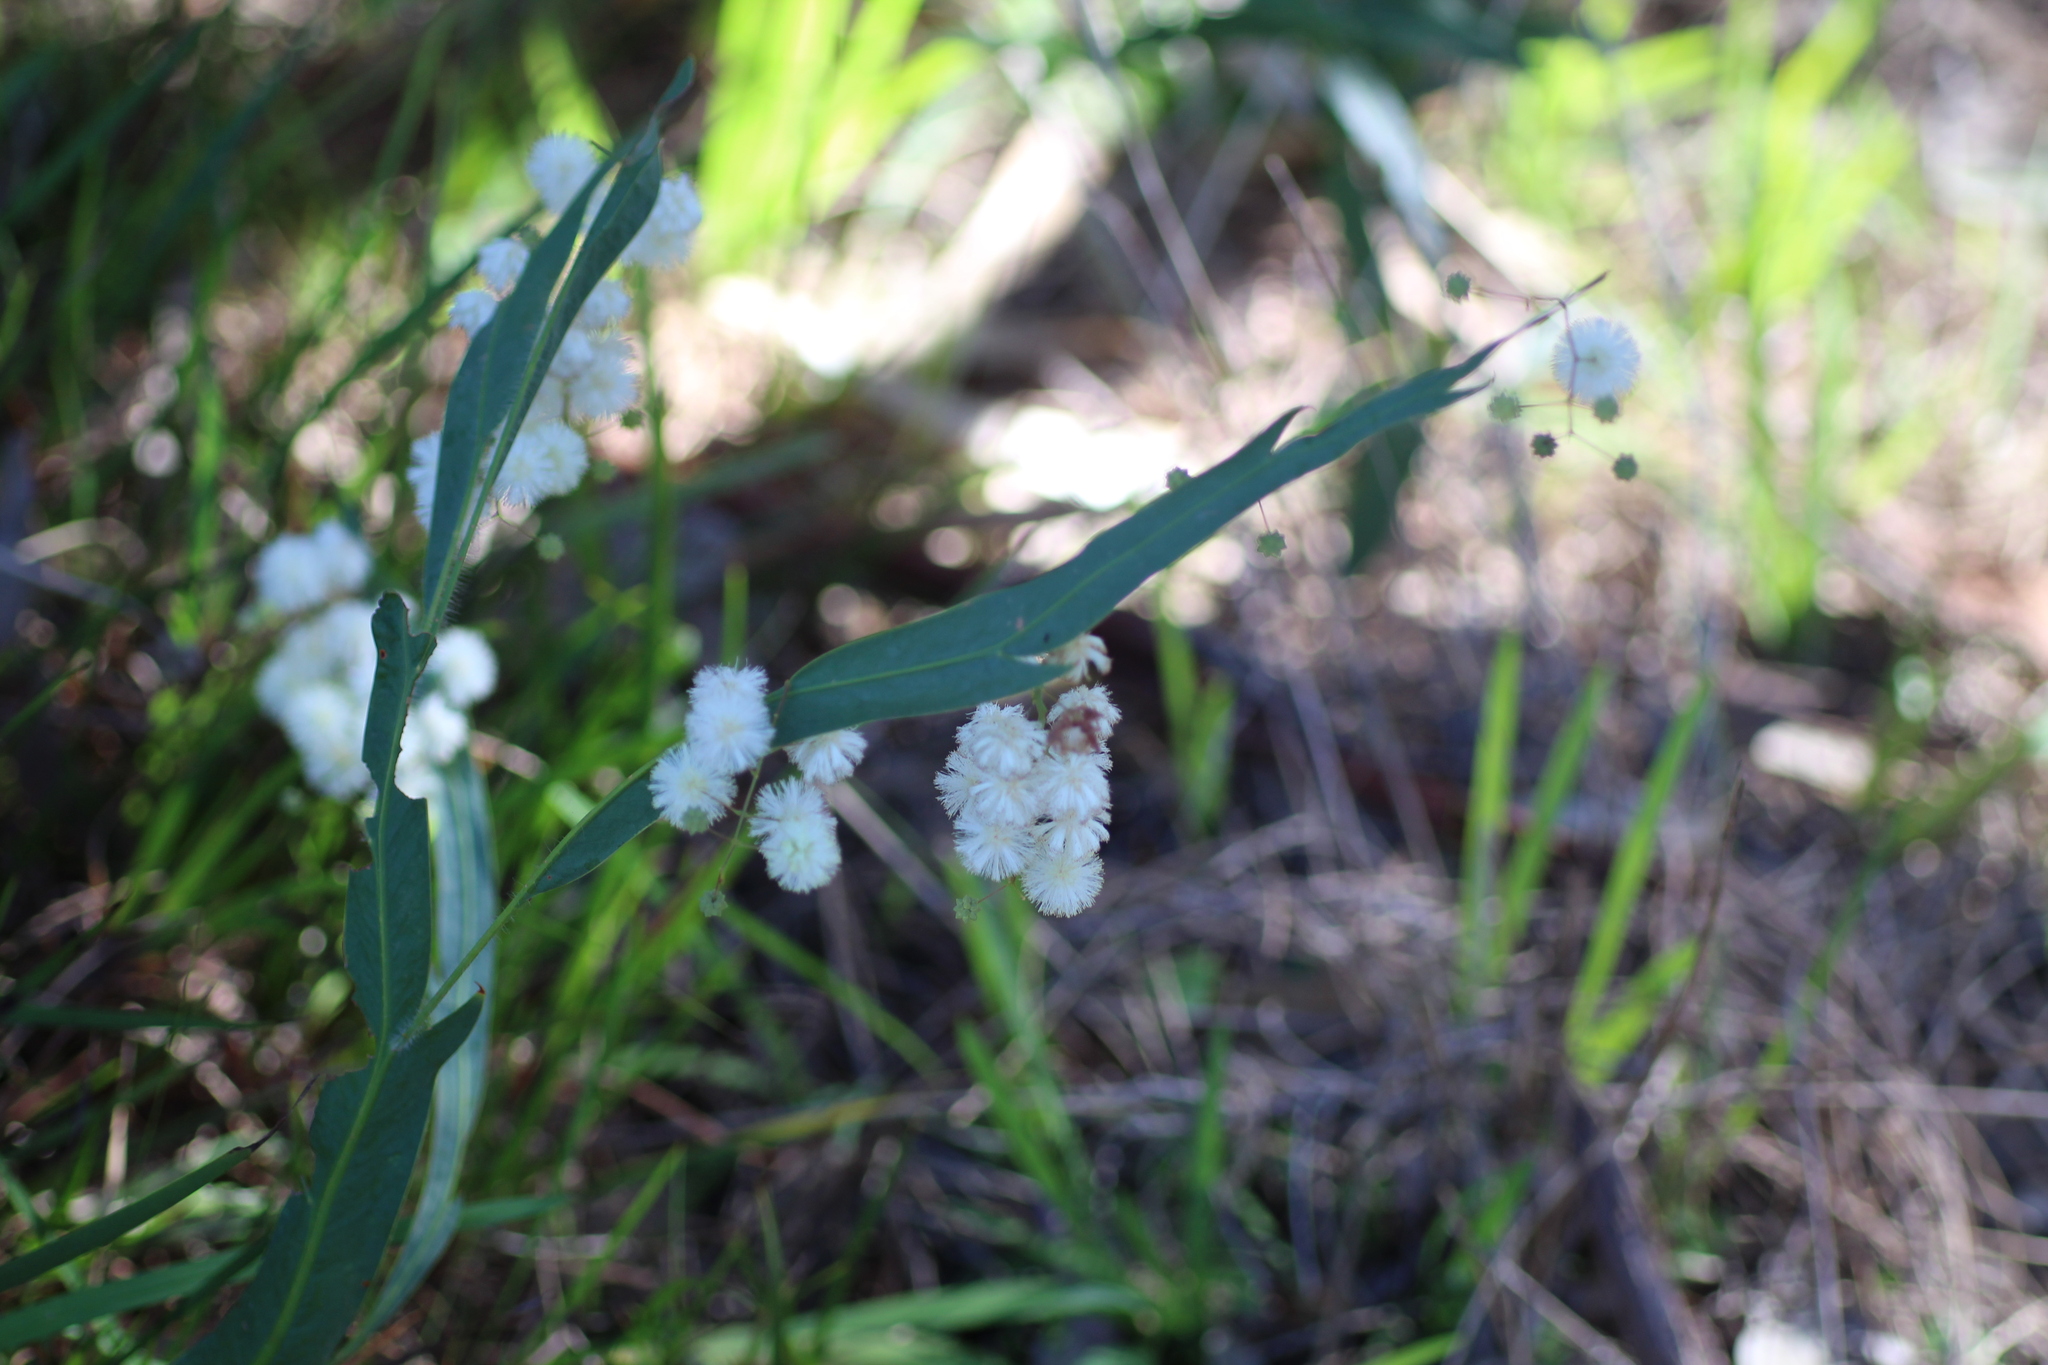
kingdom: Plantae
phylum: Tracheophyta
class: Magnoliopsida
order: Fabales
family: Fabaceae
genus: Acacia
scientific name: Acacia willdenowiana
